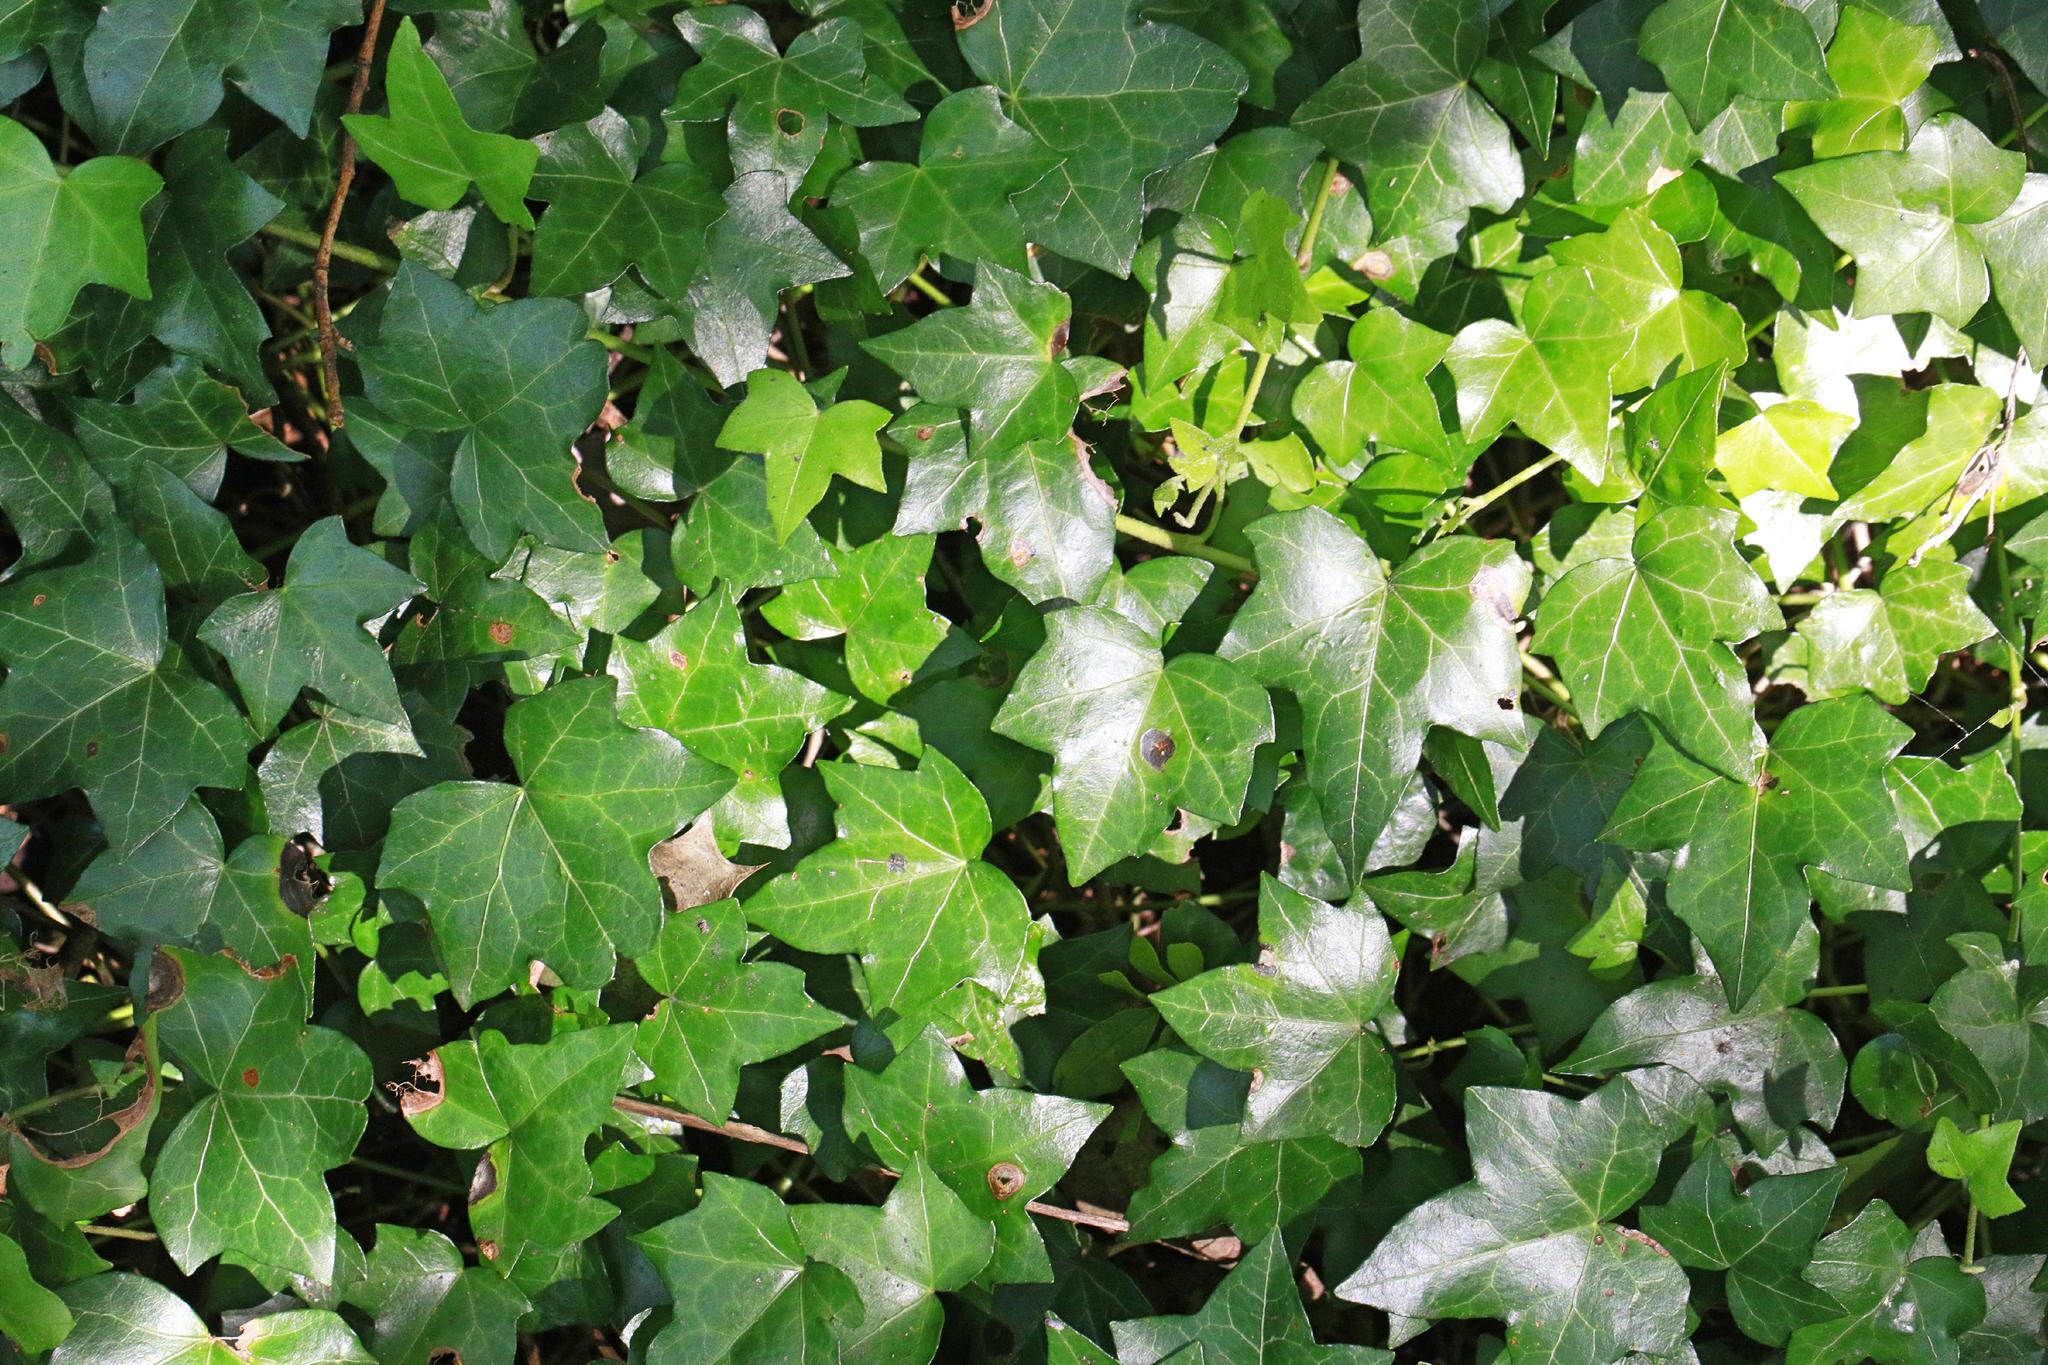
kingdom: Plantae
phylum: Tracheophyta
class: Magnoliopsida
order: Apiales
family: Araliaceae
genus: Hedera
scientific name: Hedera helix
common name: Ivy
